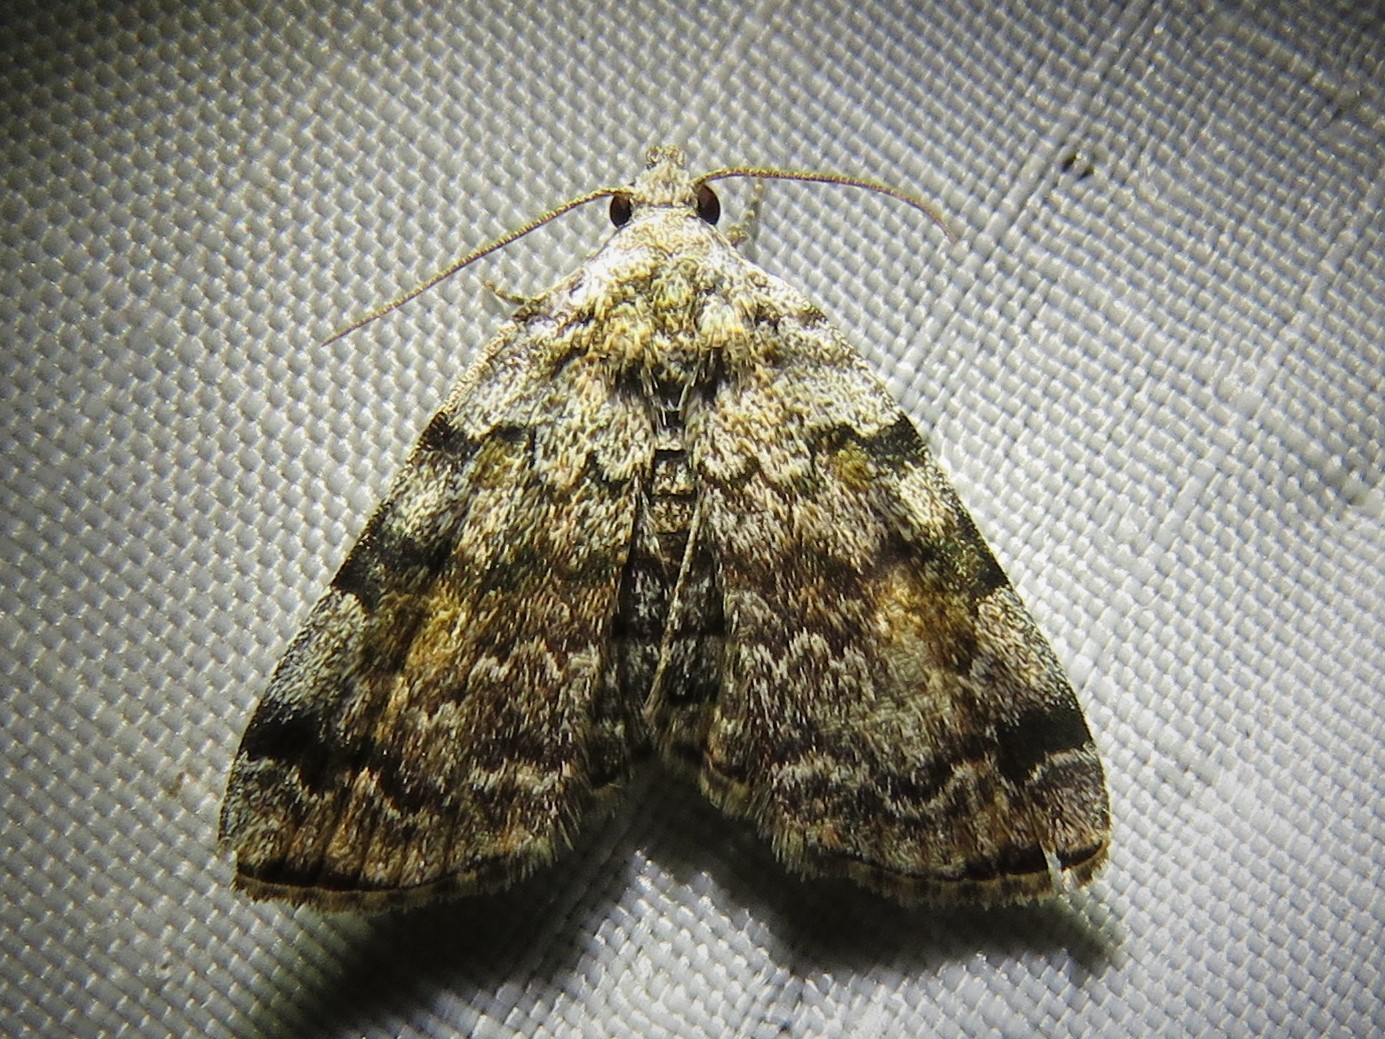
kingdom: Animalia
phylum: Arthropoda
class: Insecta
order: Lepidoptera
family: Erebidae
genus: Idia
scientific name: Idia americalis
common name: American idia moth
